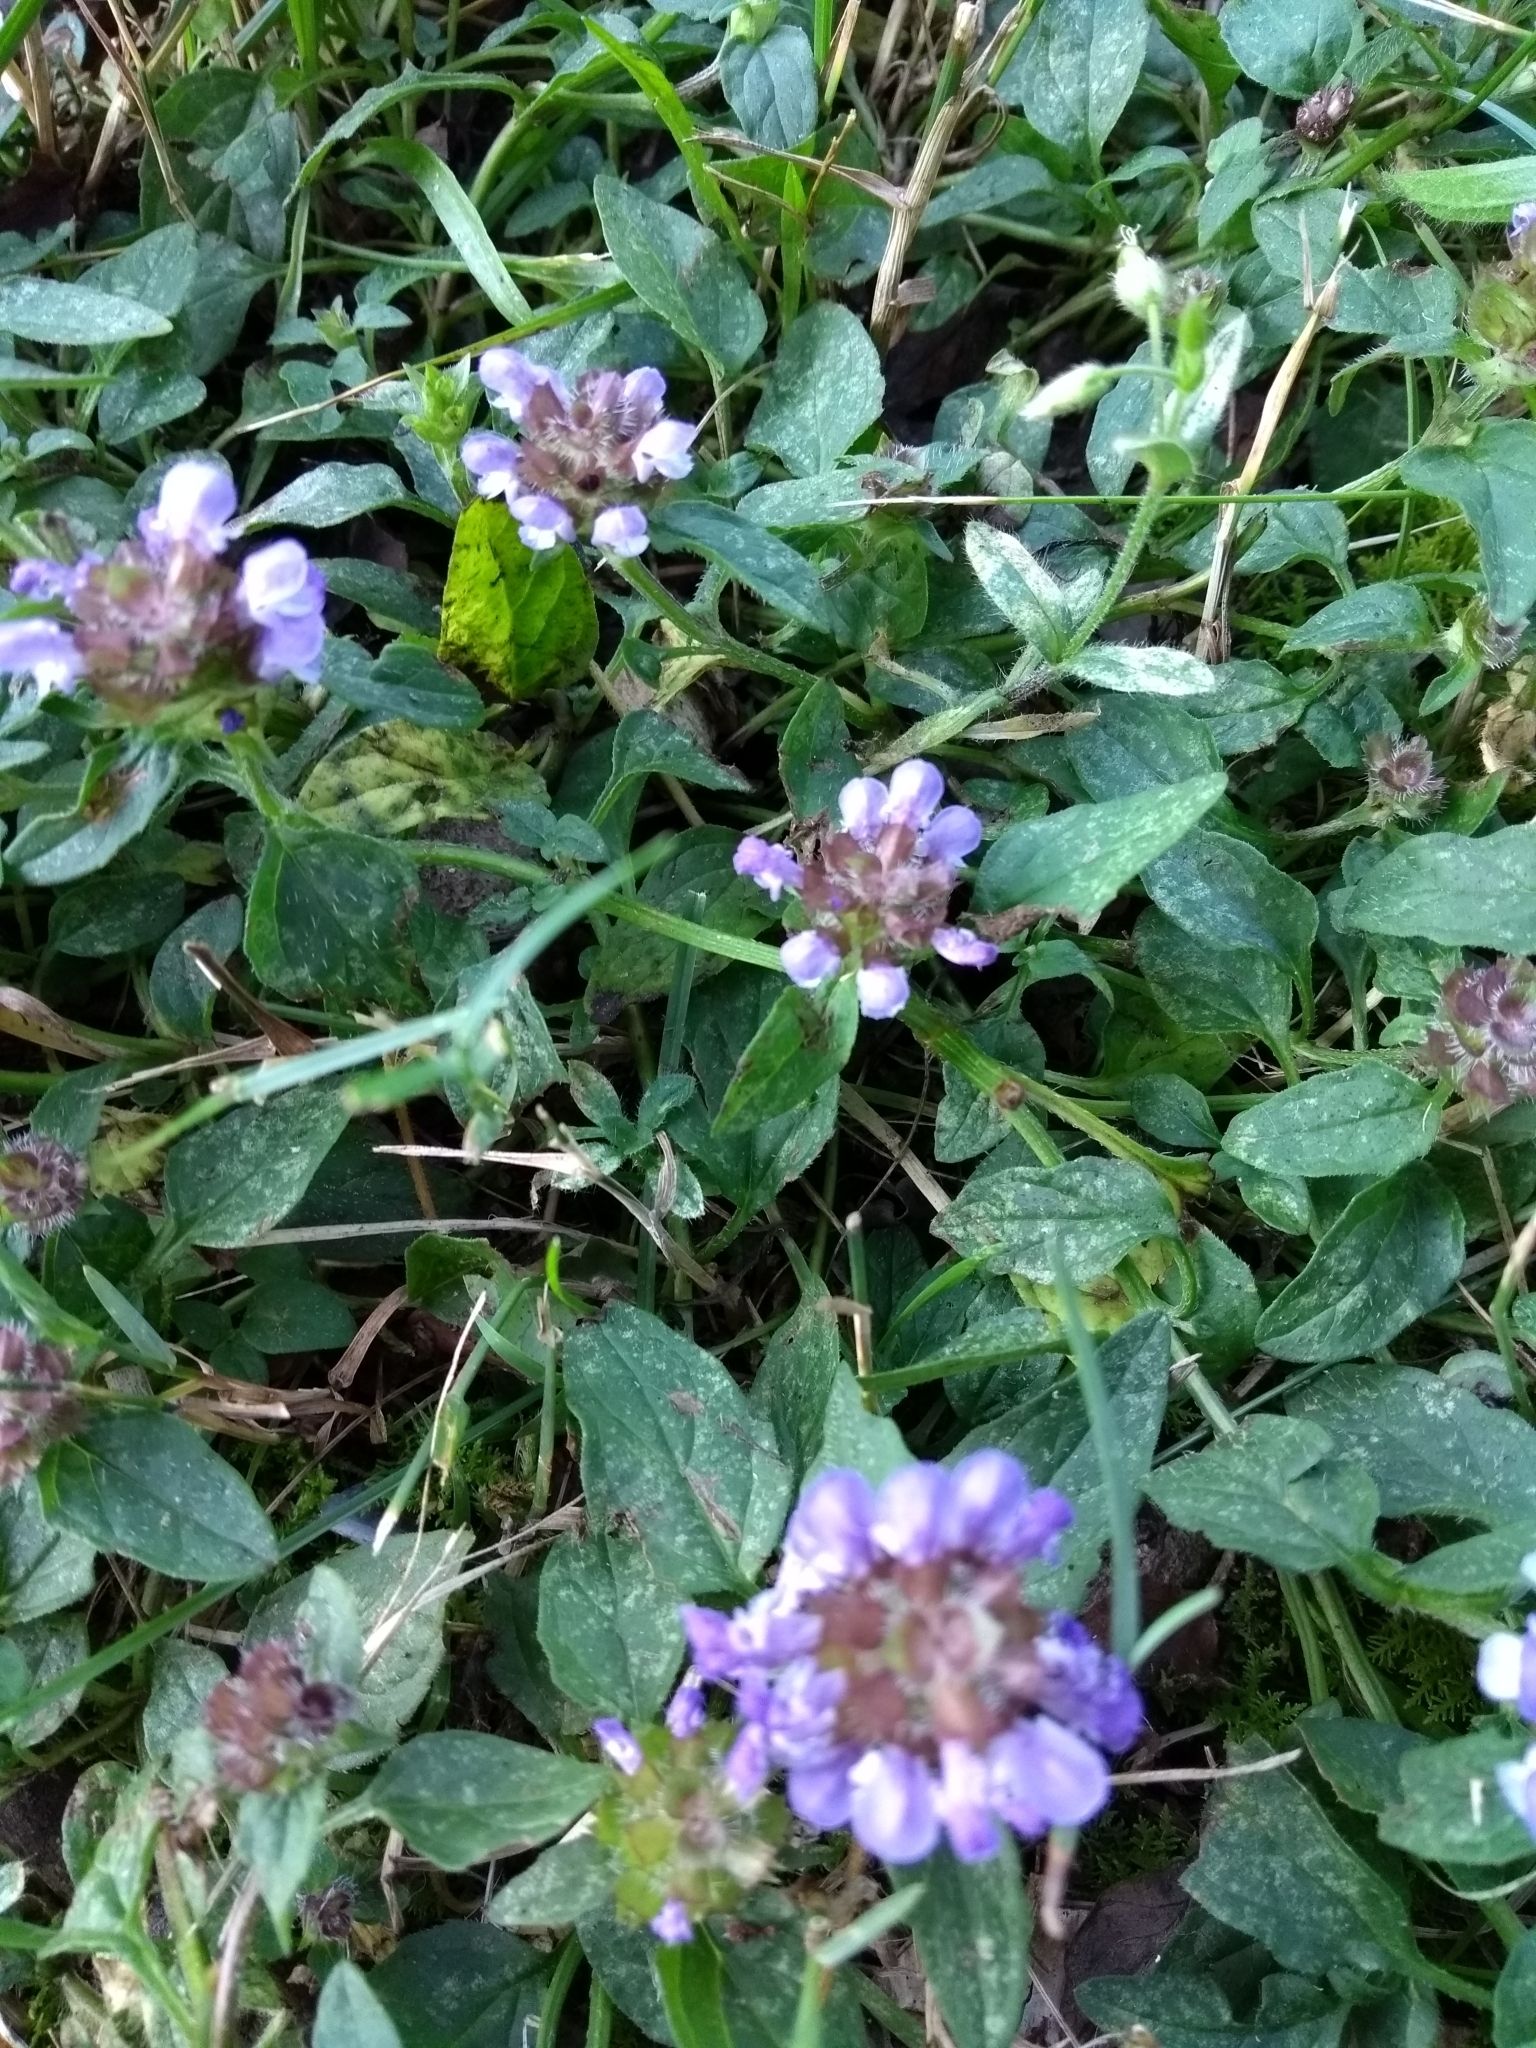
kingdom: Plantae
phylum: Tracheophyta
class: Magnoliopsida
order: Lamiales
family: Lamiaceae
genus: Prunella
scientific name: Prunella vulgaris
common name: Heal-all
